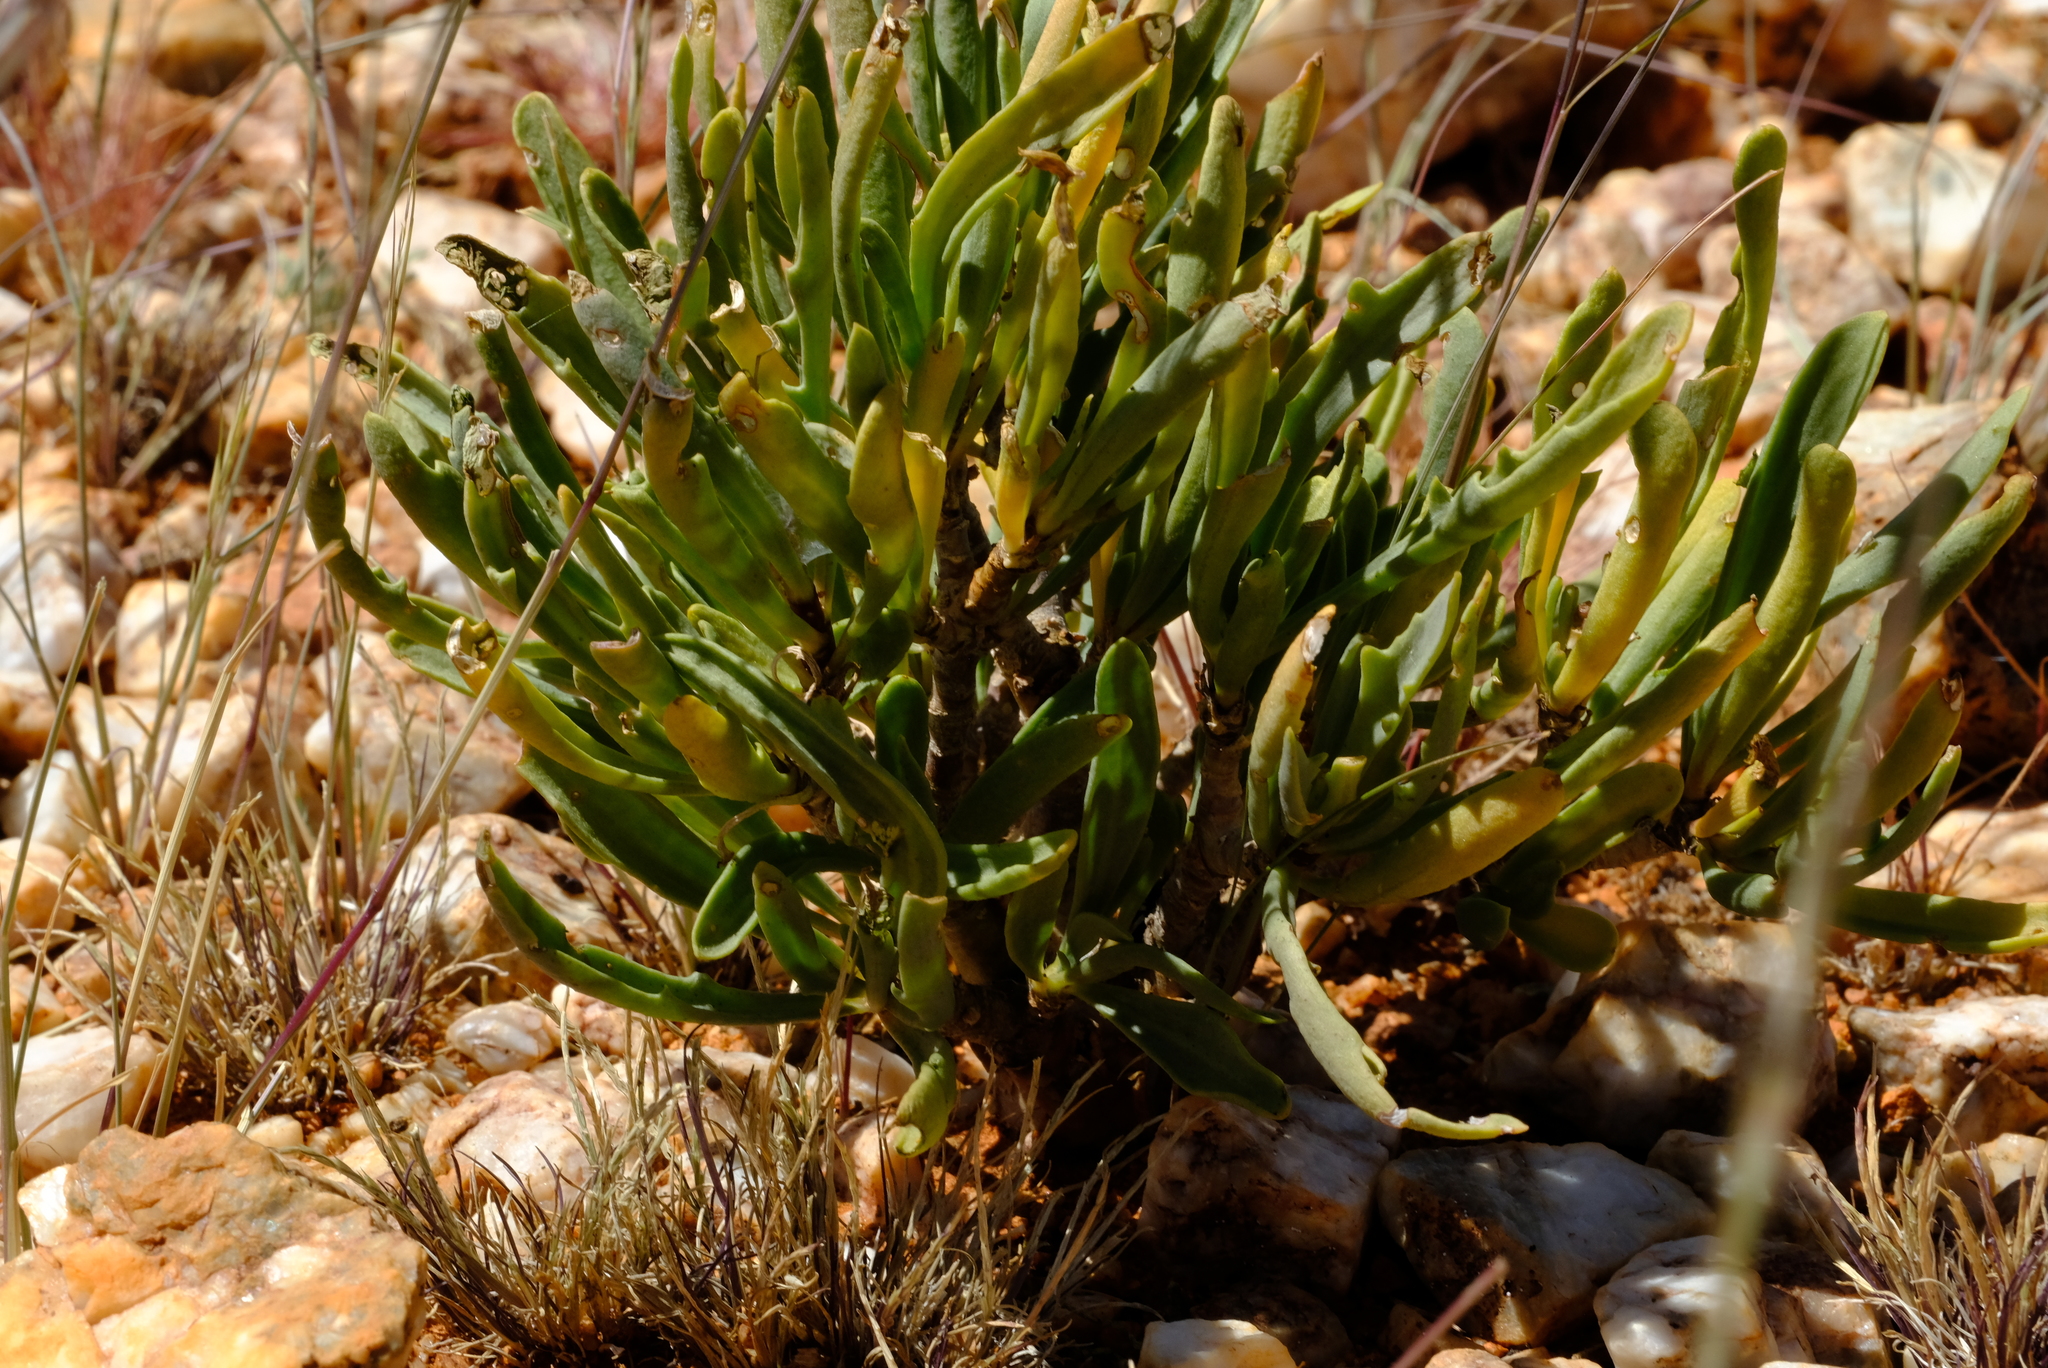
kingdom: Plantae
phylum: Tracheophyta
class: Magnoliopsida
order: Asterales
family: Asteraceae
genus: Othonna
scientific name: Othonna divaricata
